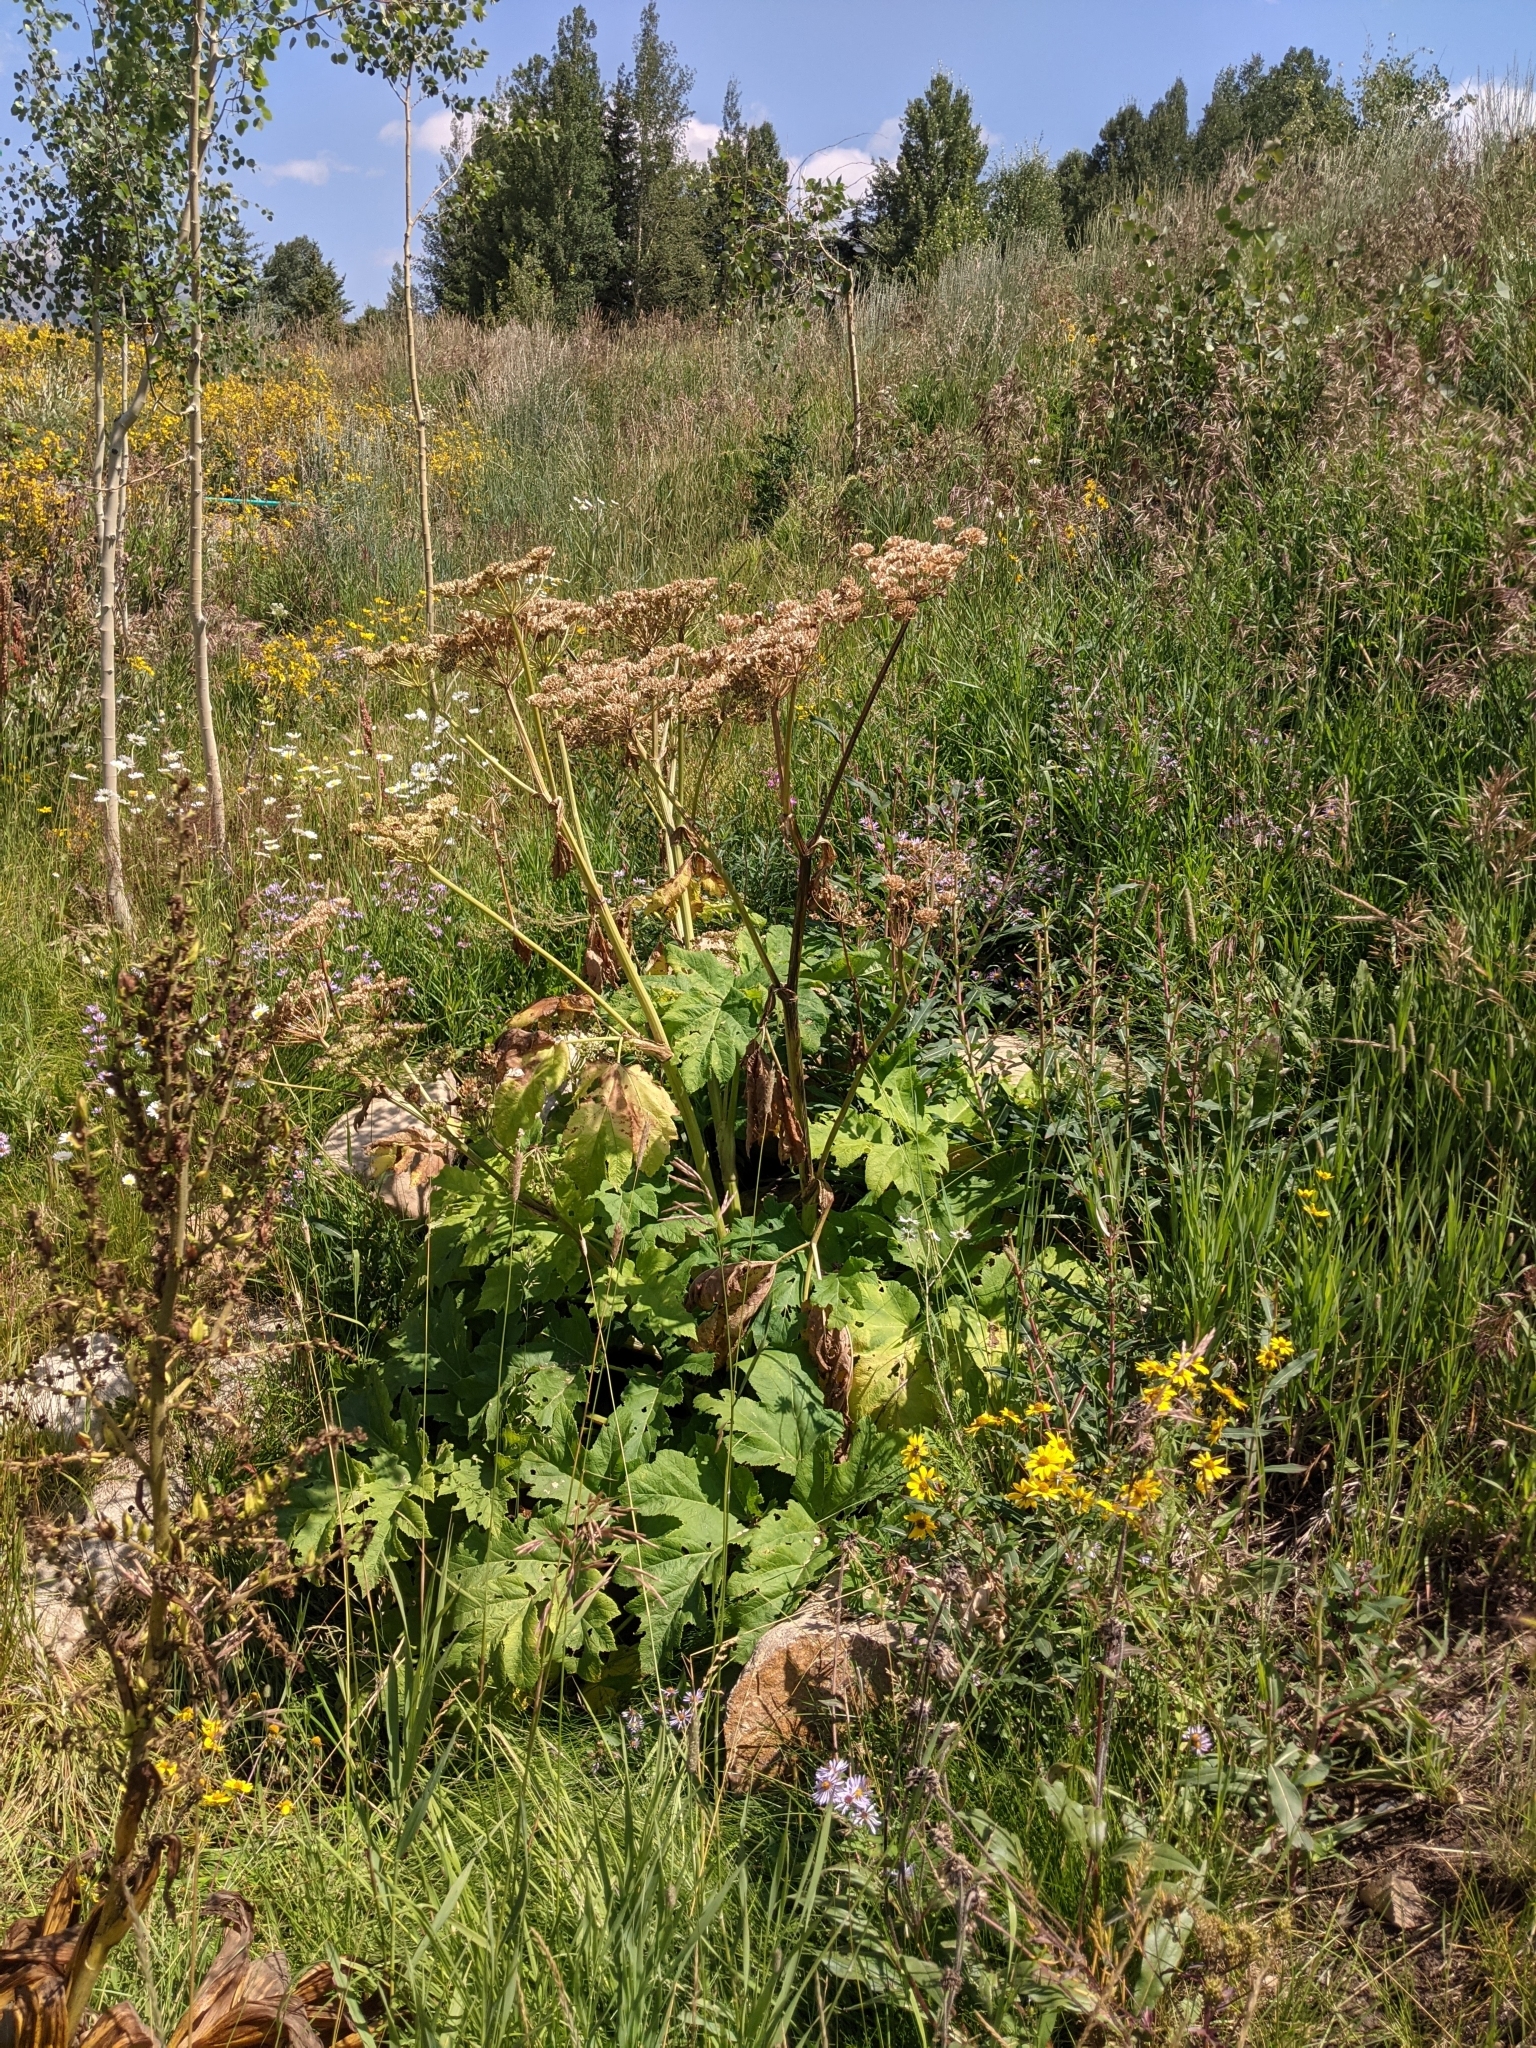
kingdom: Plantae
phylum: Tracheophyta
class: Magnoliopsida
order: Apiales
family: Apiaceae
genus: Heracleum
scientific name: Heracleum maximum
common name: American cow parsnip
